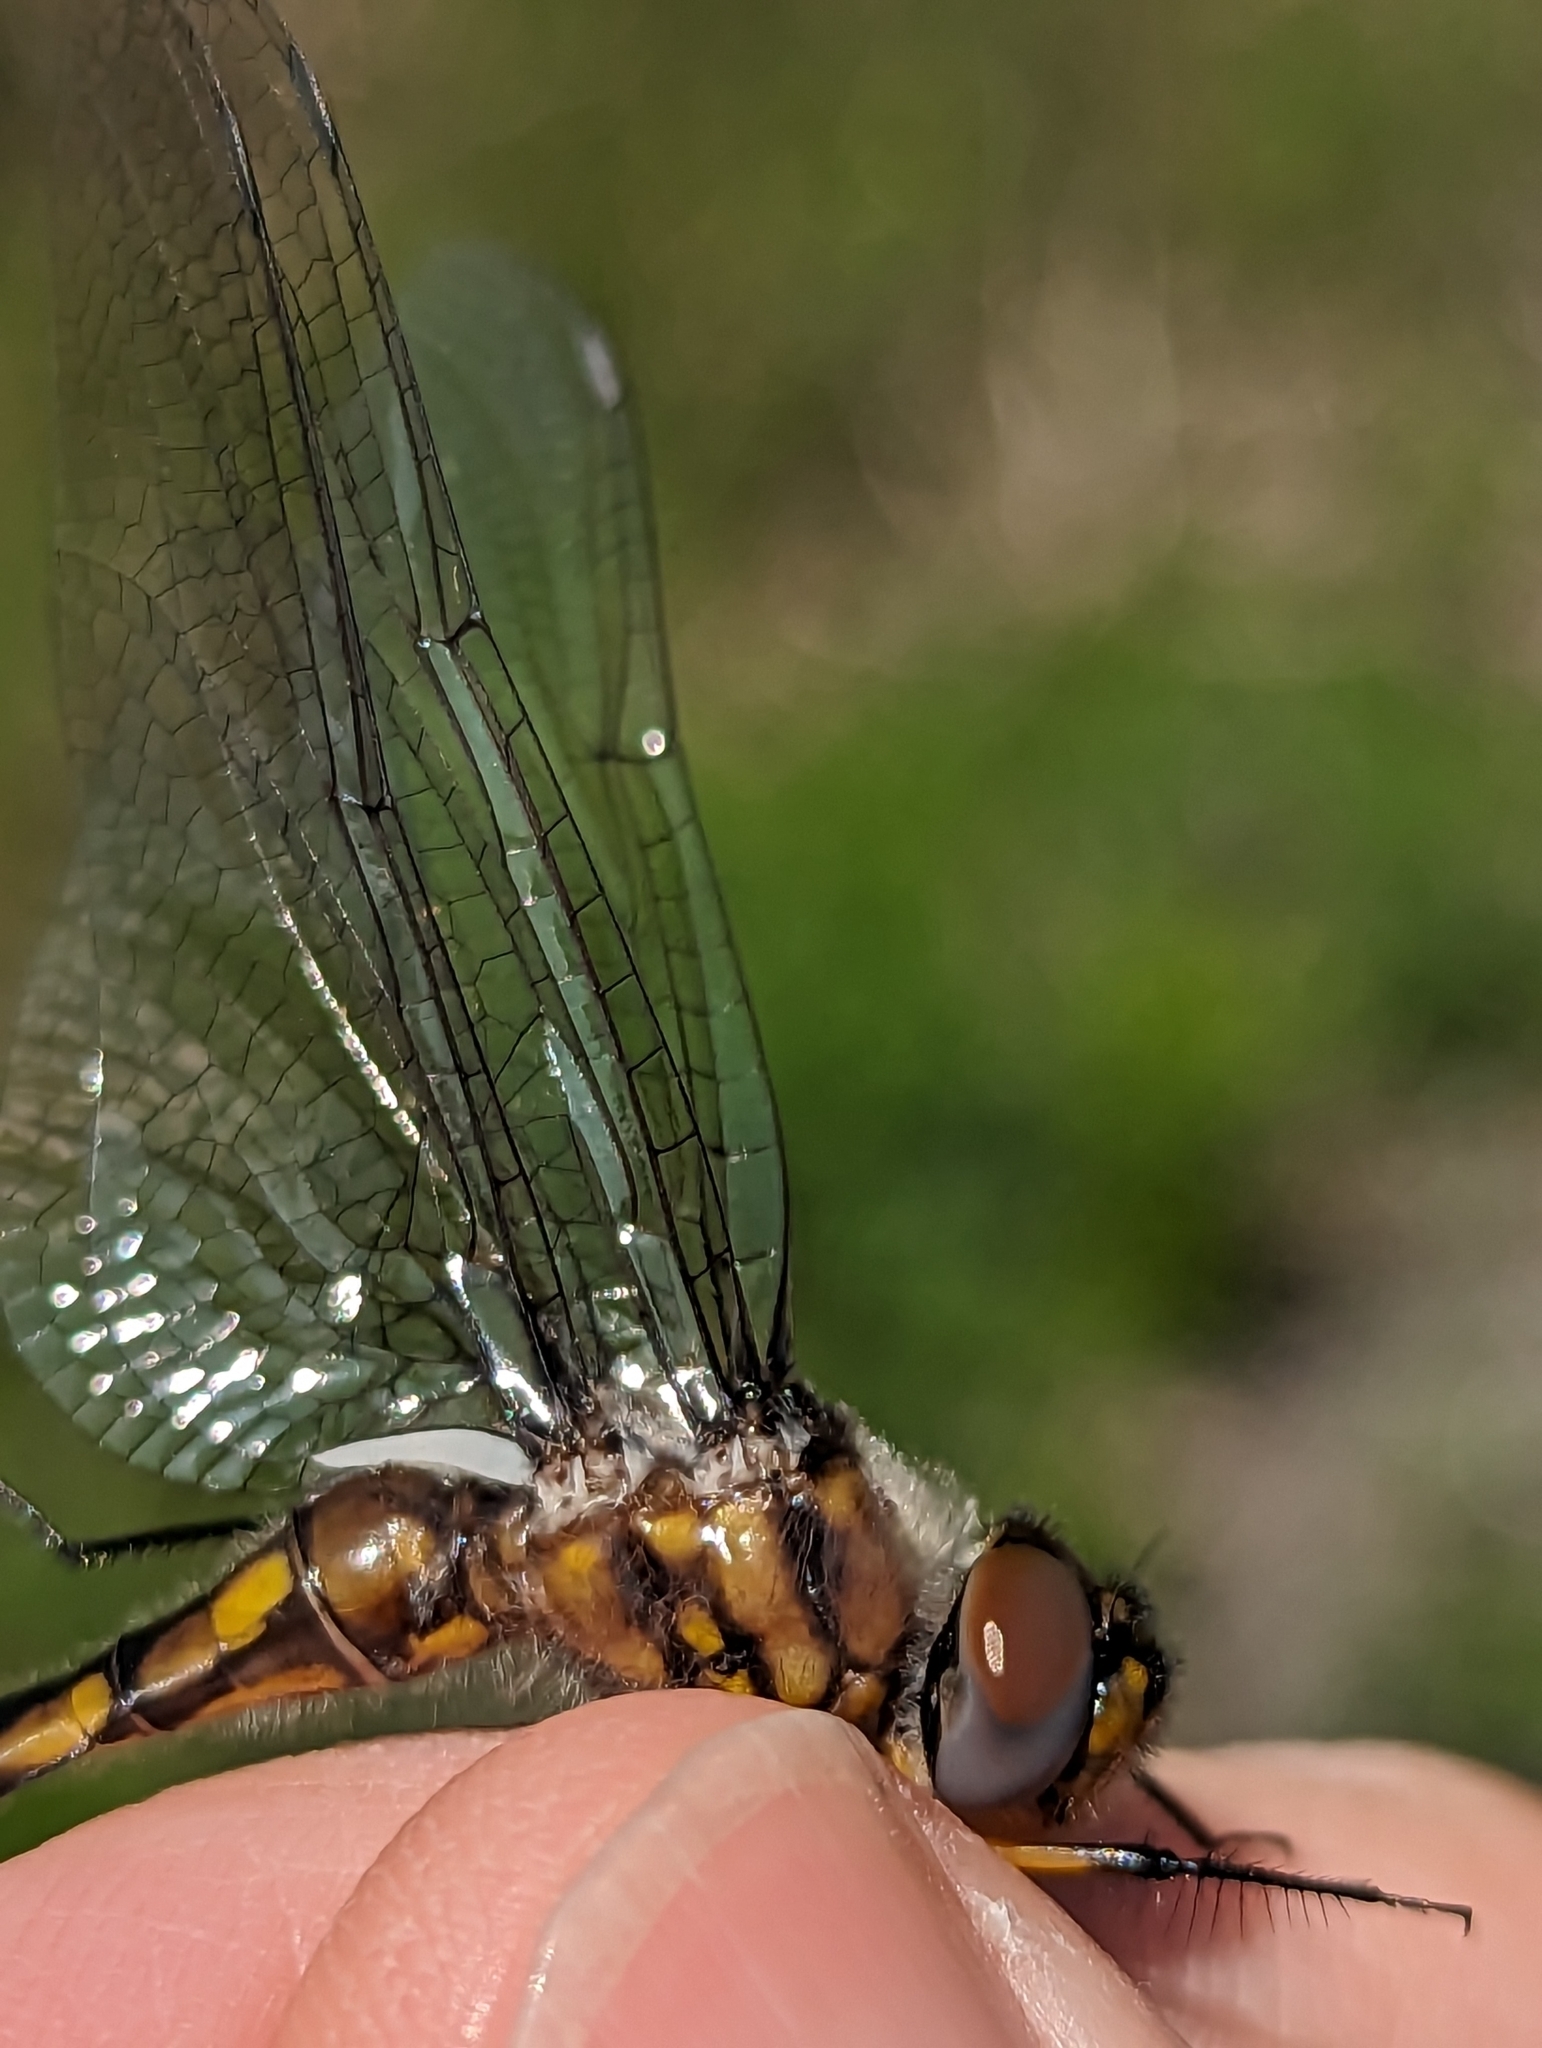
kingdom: Animalia
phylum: Arthropoda
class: Insecta
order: Odonata
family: Corduliidae
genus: Epitheca
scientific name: Epitheca spinigera
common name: Spiny baskettail
